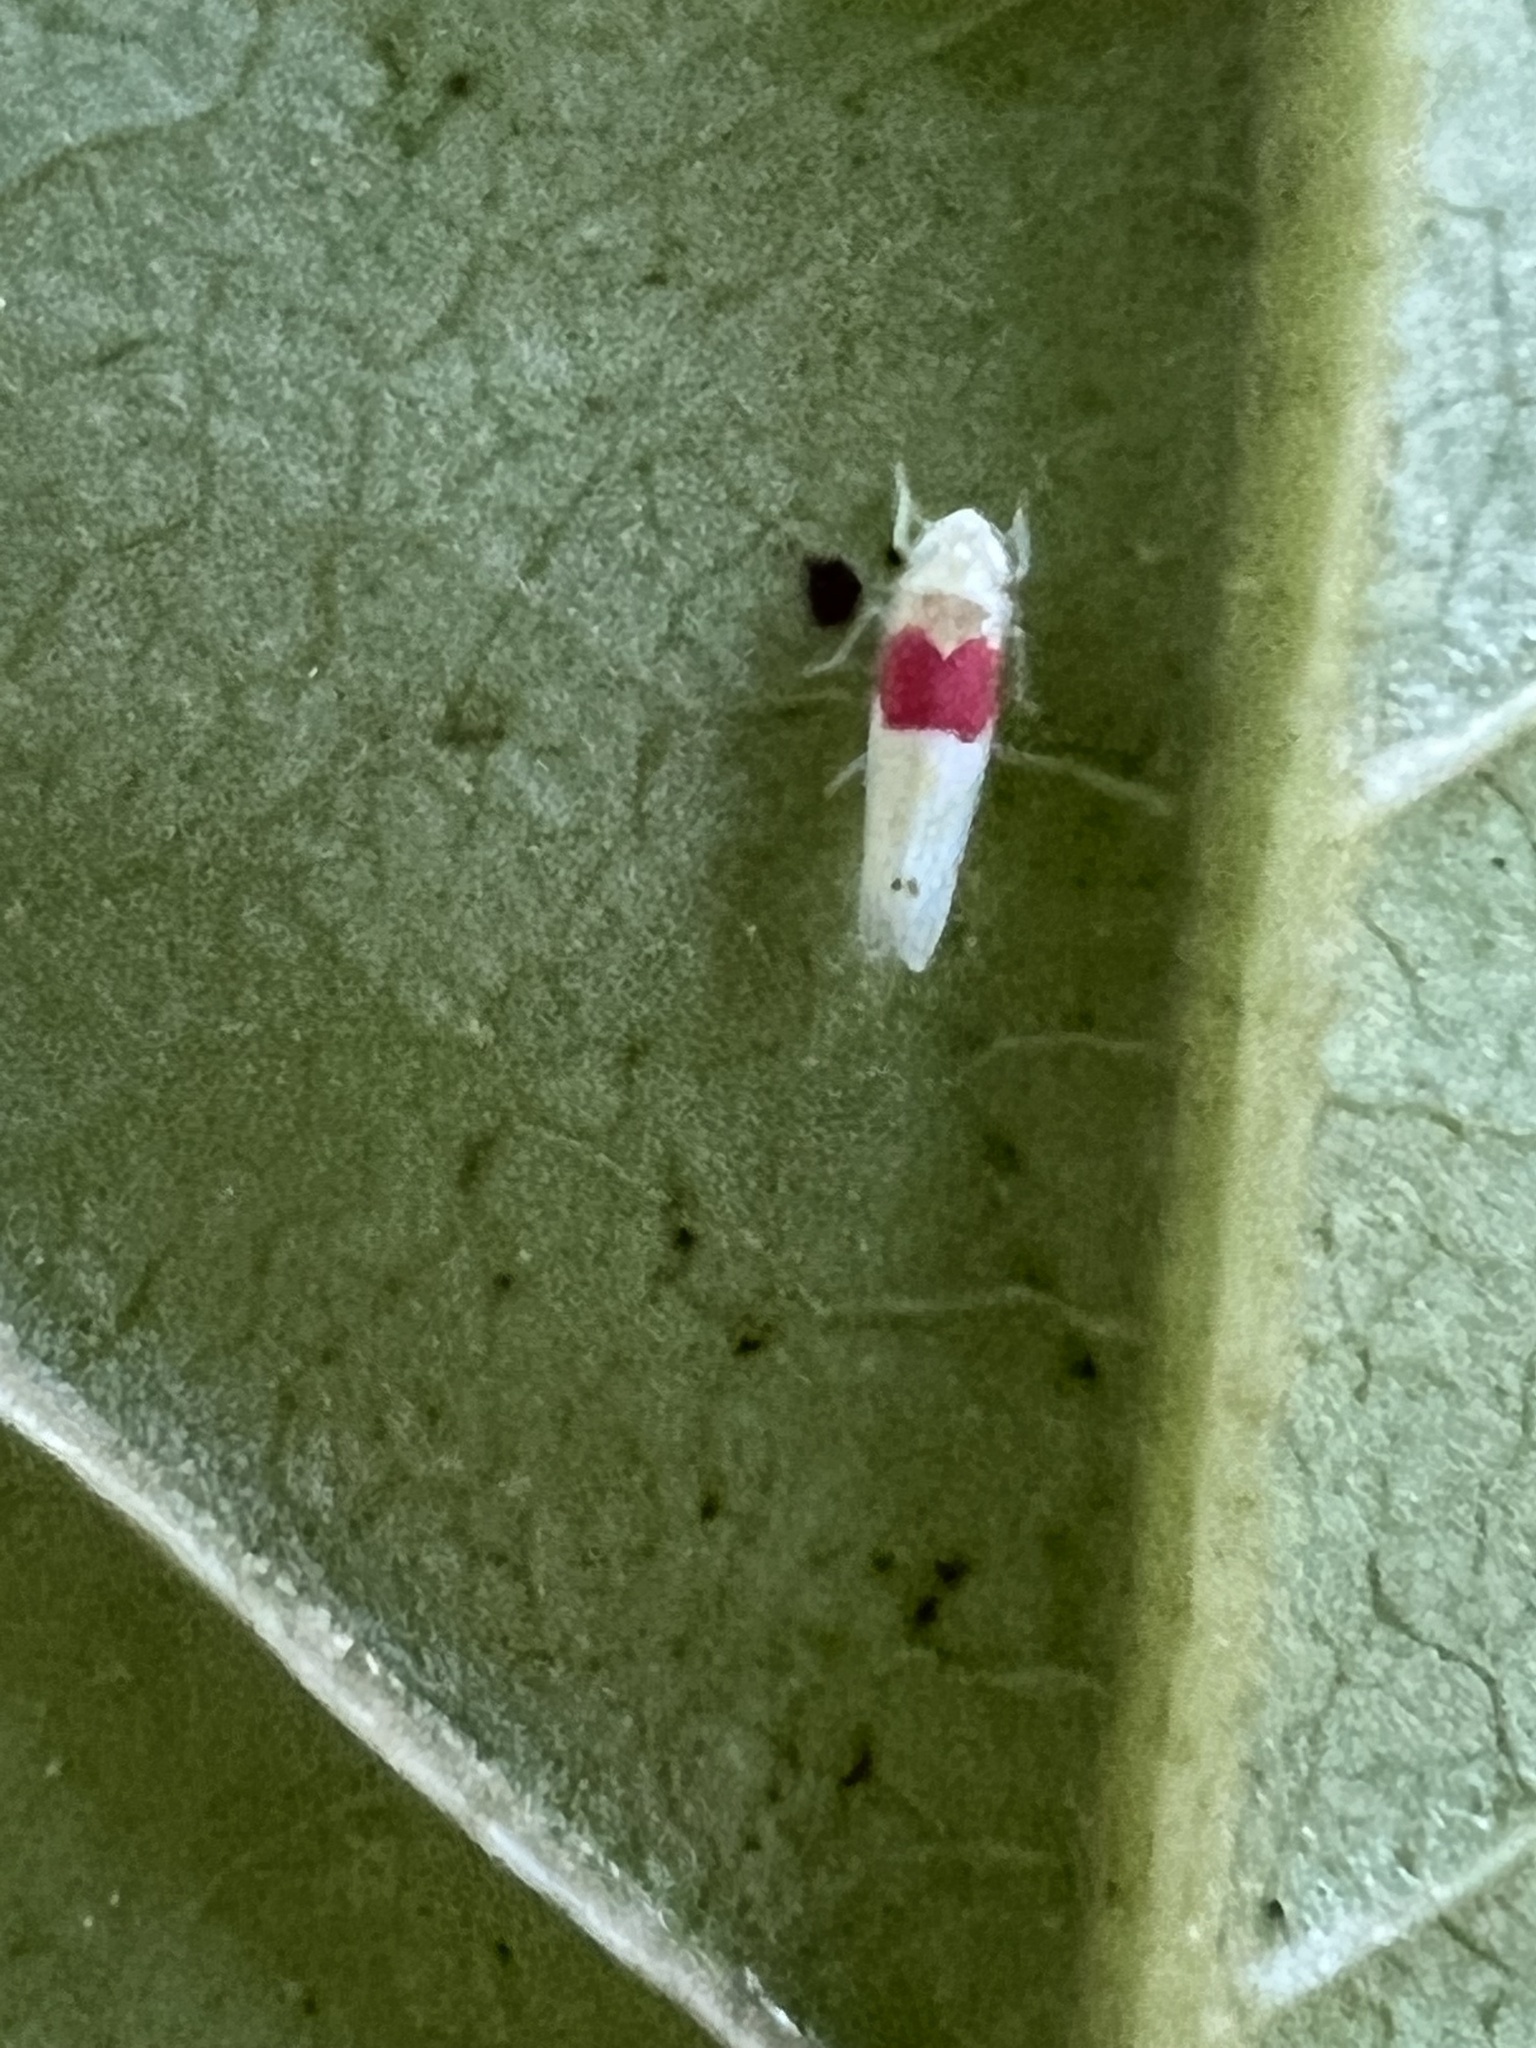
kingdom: Animalia
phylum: Arthropoda
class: Insecta
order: Hemiptera
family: Cicadellidae
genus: Eratoneura
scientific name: Eratoneura osborni
